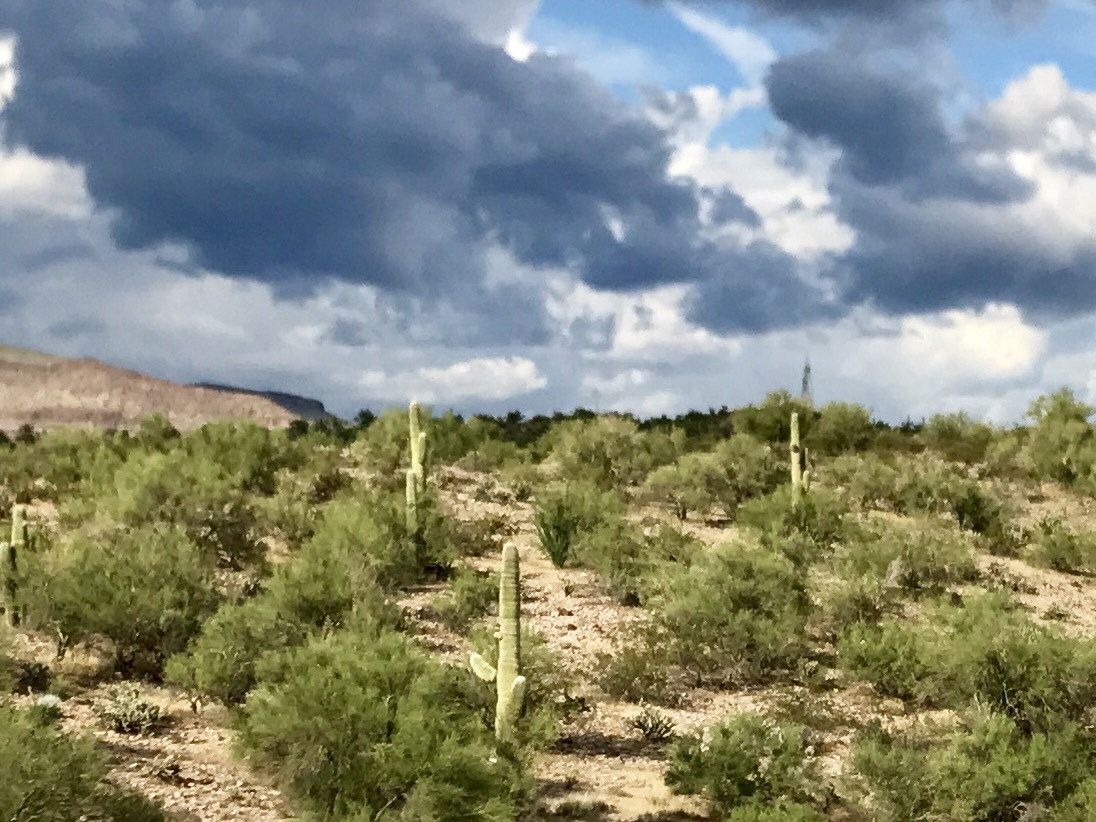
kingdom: Plantae
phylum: Tracheophyta
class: Magnoliopsida
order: Caryophyllales
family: Cactaceae
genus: Carnegiea
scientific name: Carnegiea gigantea
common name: Saguaro
